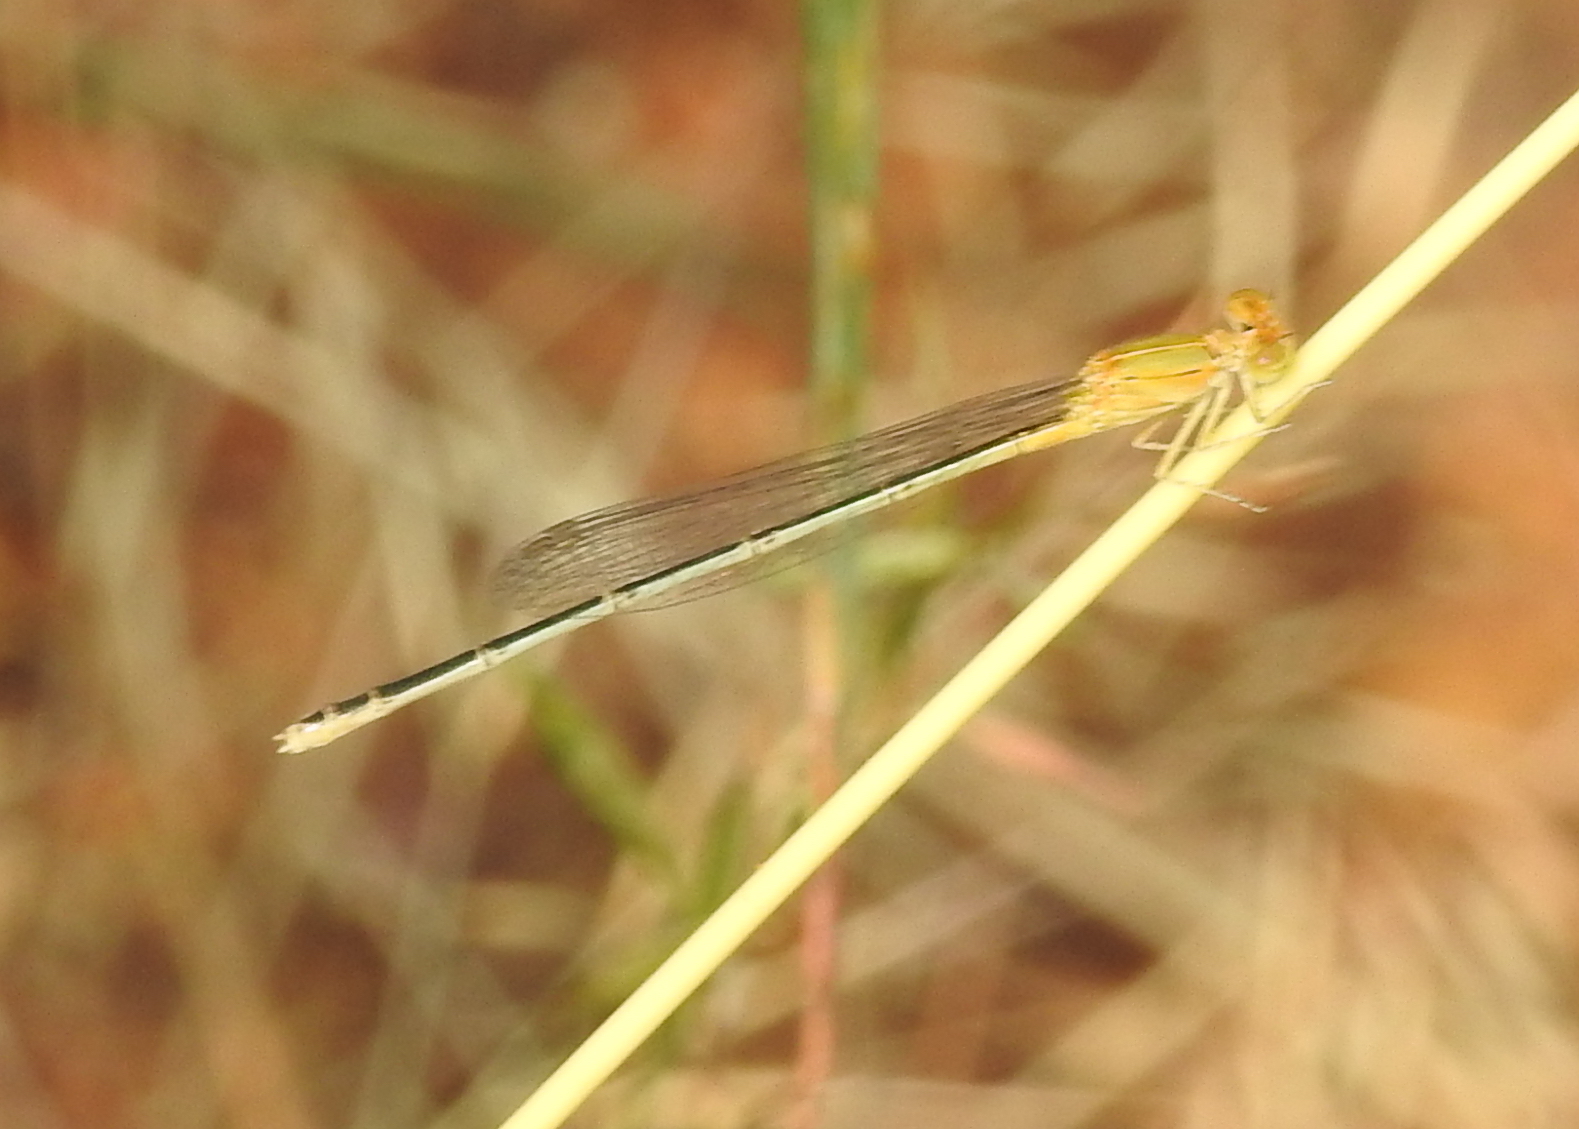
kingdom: Animalia
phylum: Arthropoda
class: Insecta
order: Odonata
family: Coenagrionidae
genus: Pseudagrion
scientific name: Pseudagrion decorum
